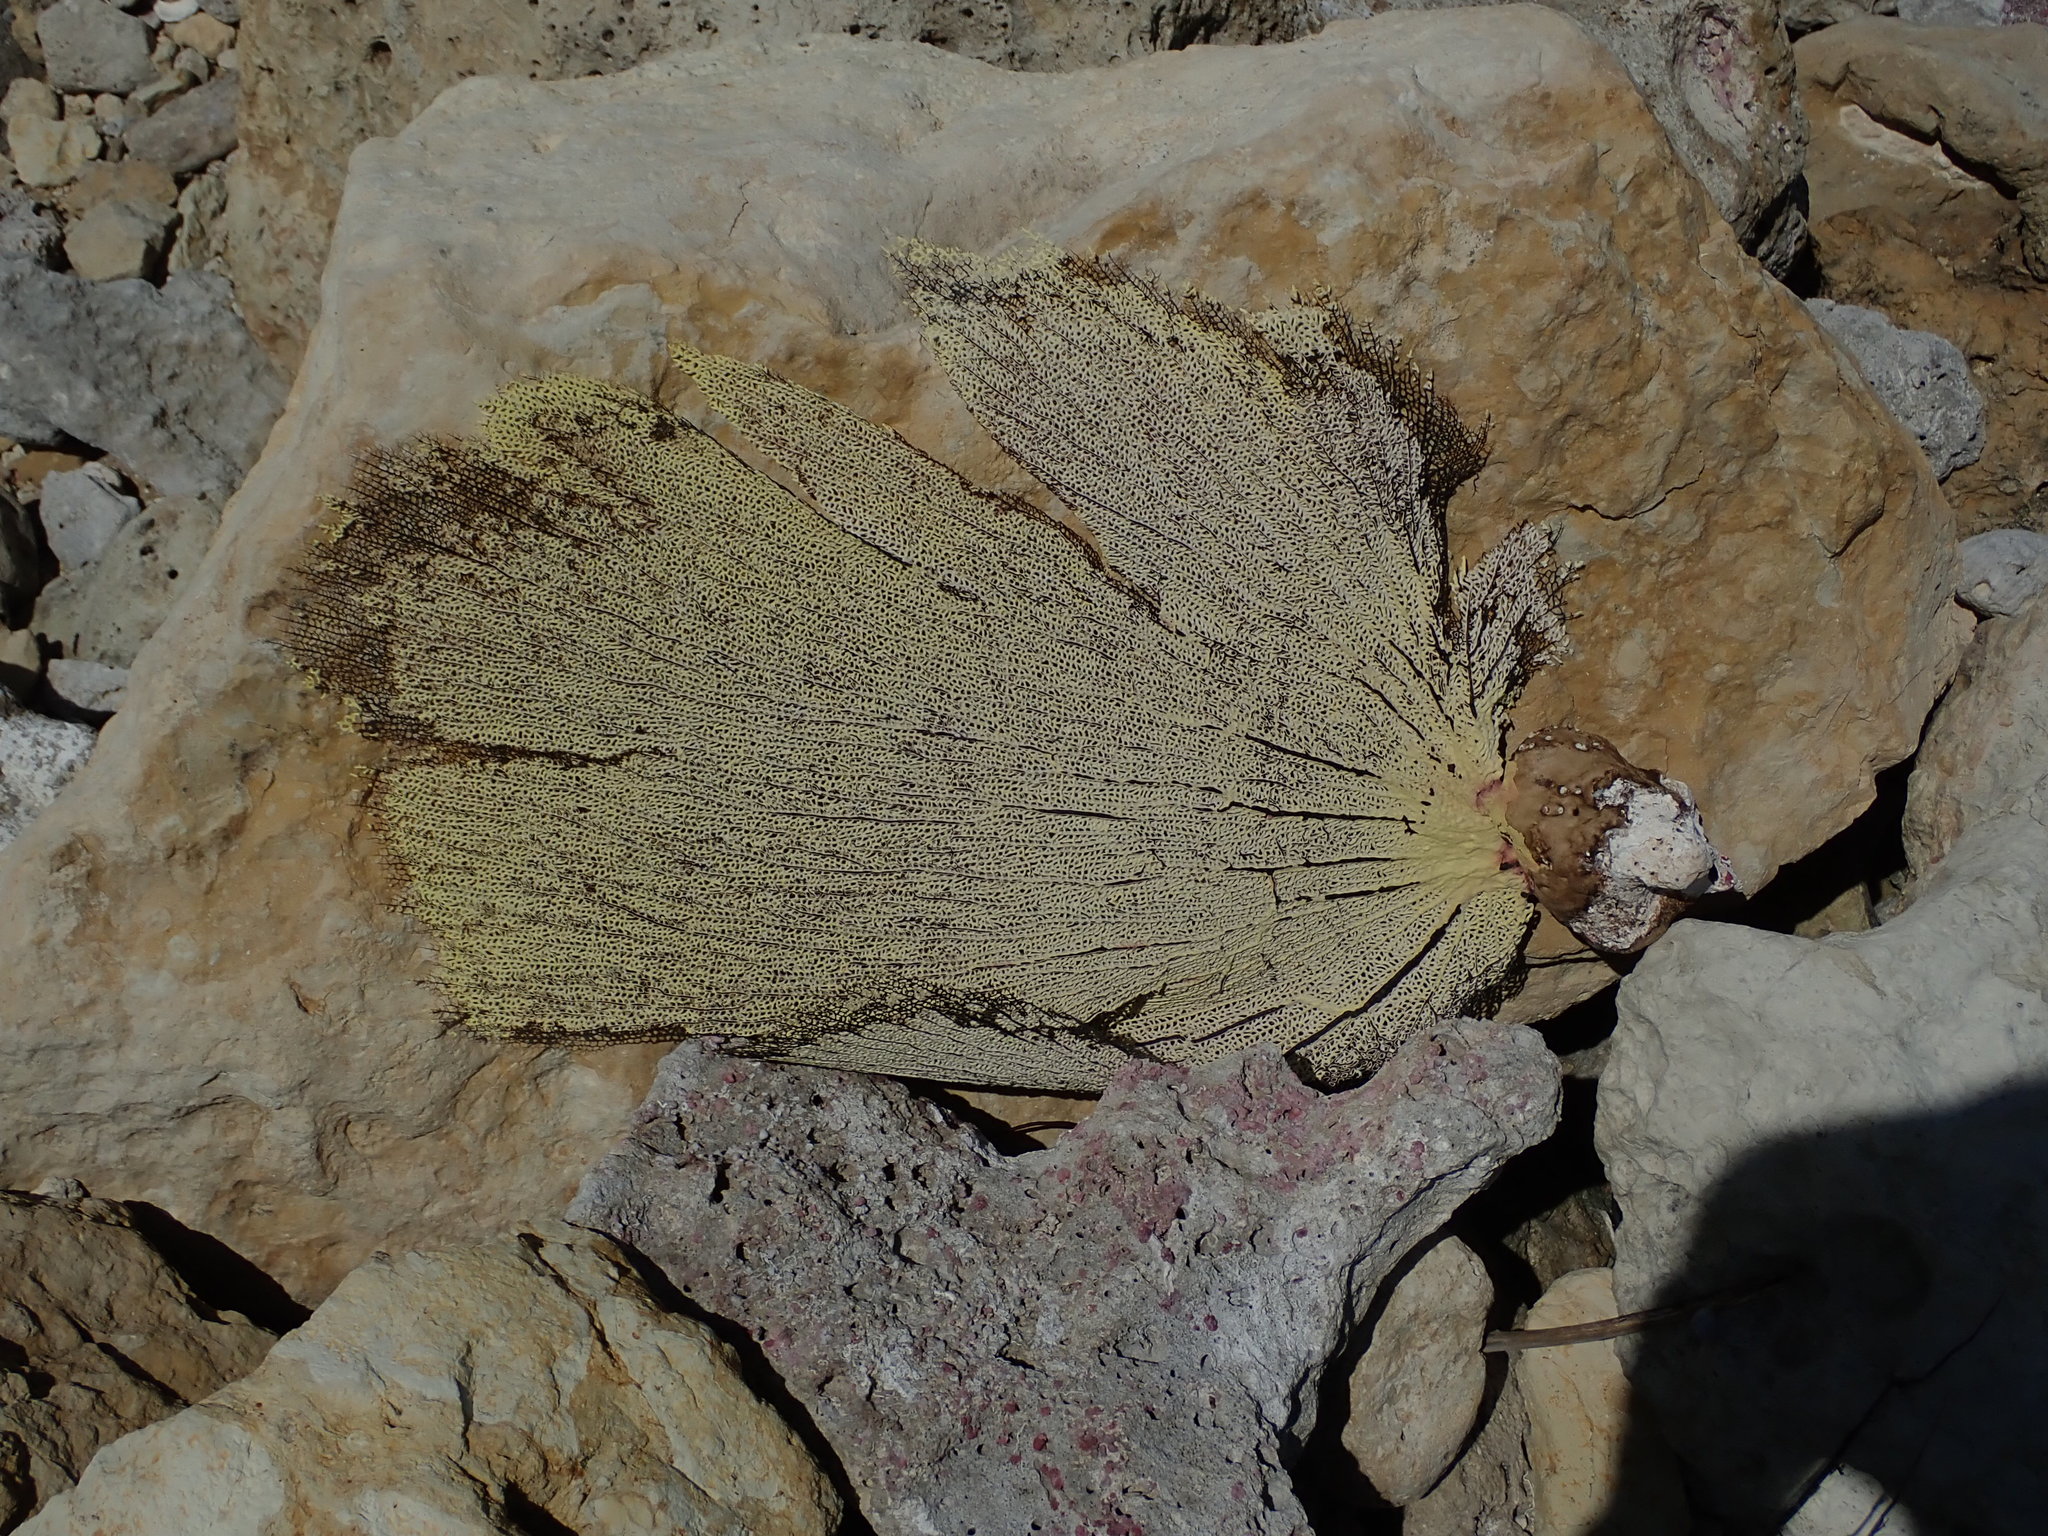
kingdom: Animalia
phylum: Cnidaria
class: Anthozoa
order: Malacalcyonacea
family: Gorgoniidae
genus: Gorgonia
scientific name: Gorgonia ventalina
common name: Common sea fan
